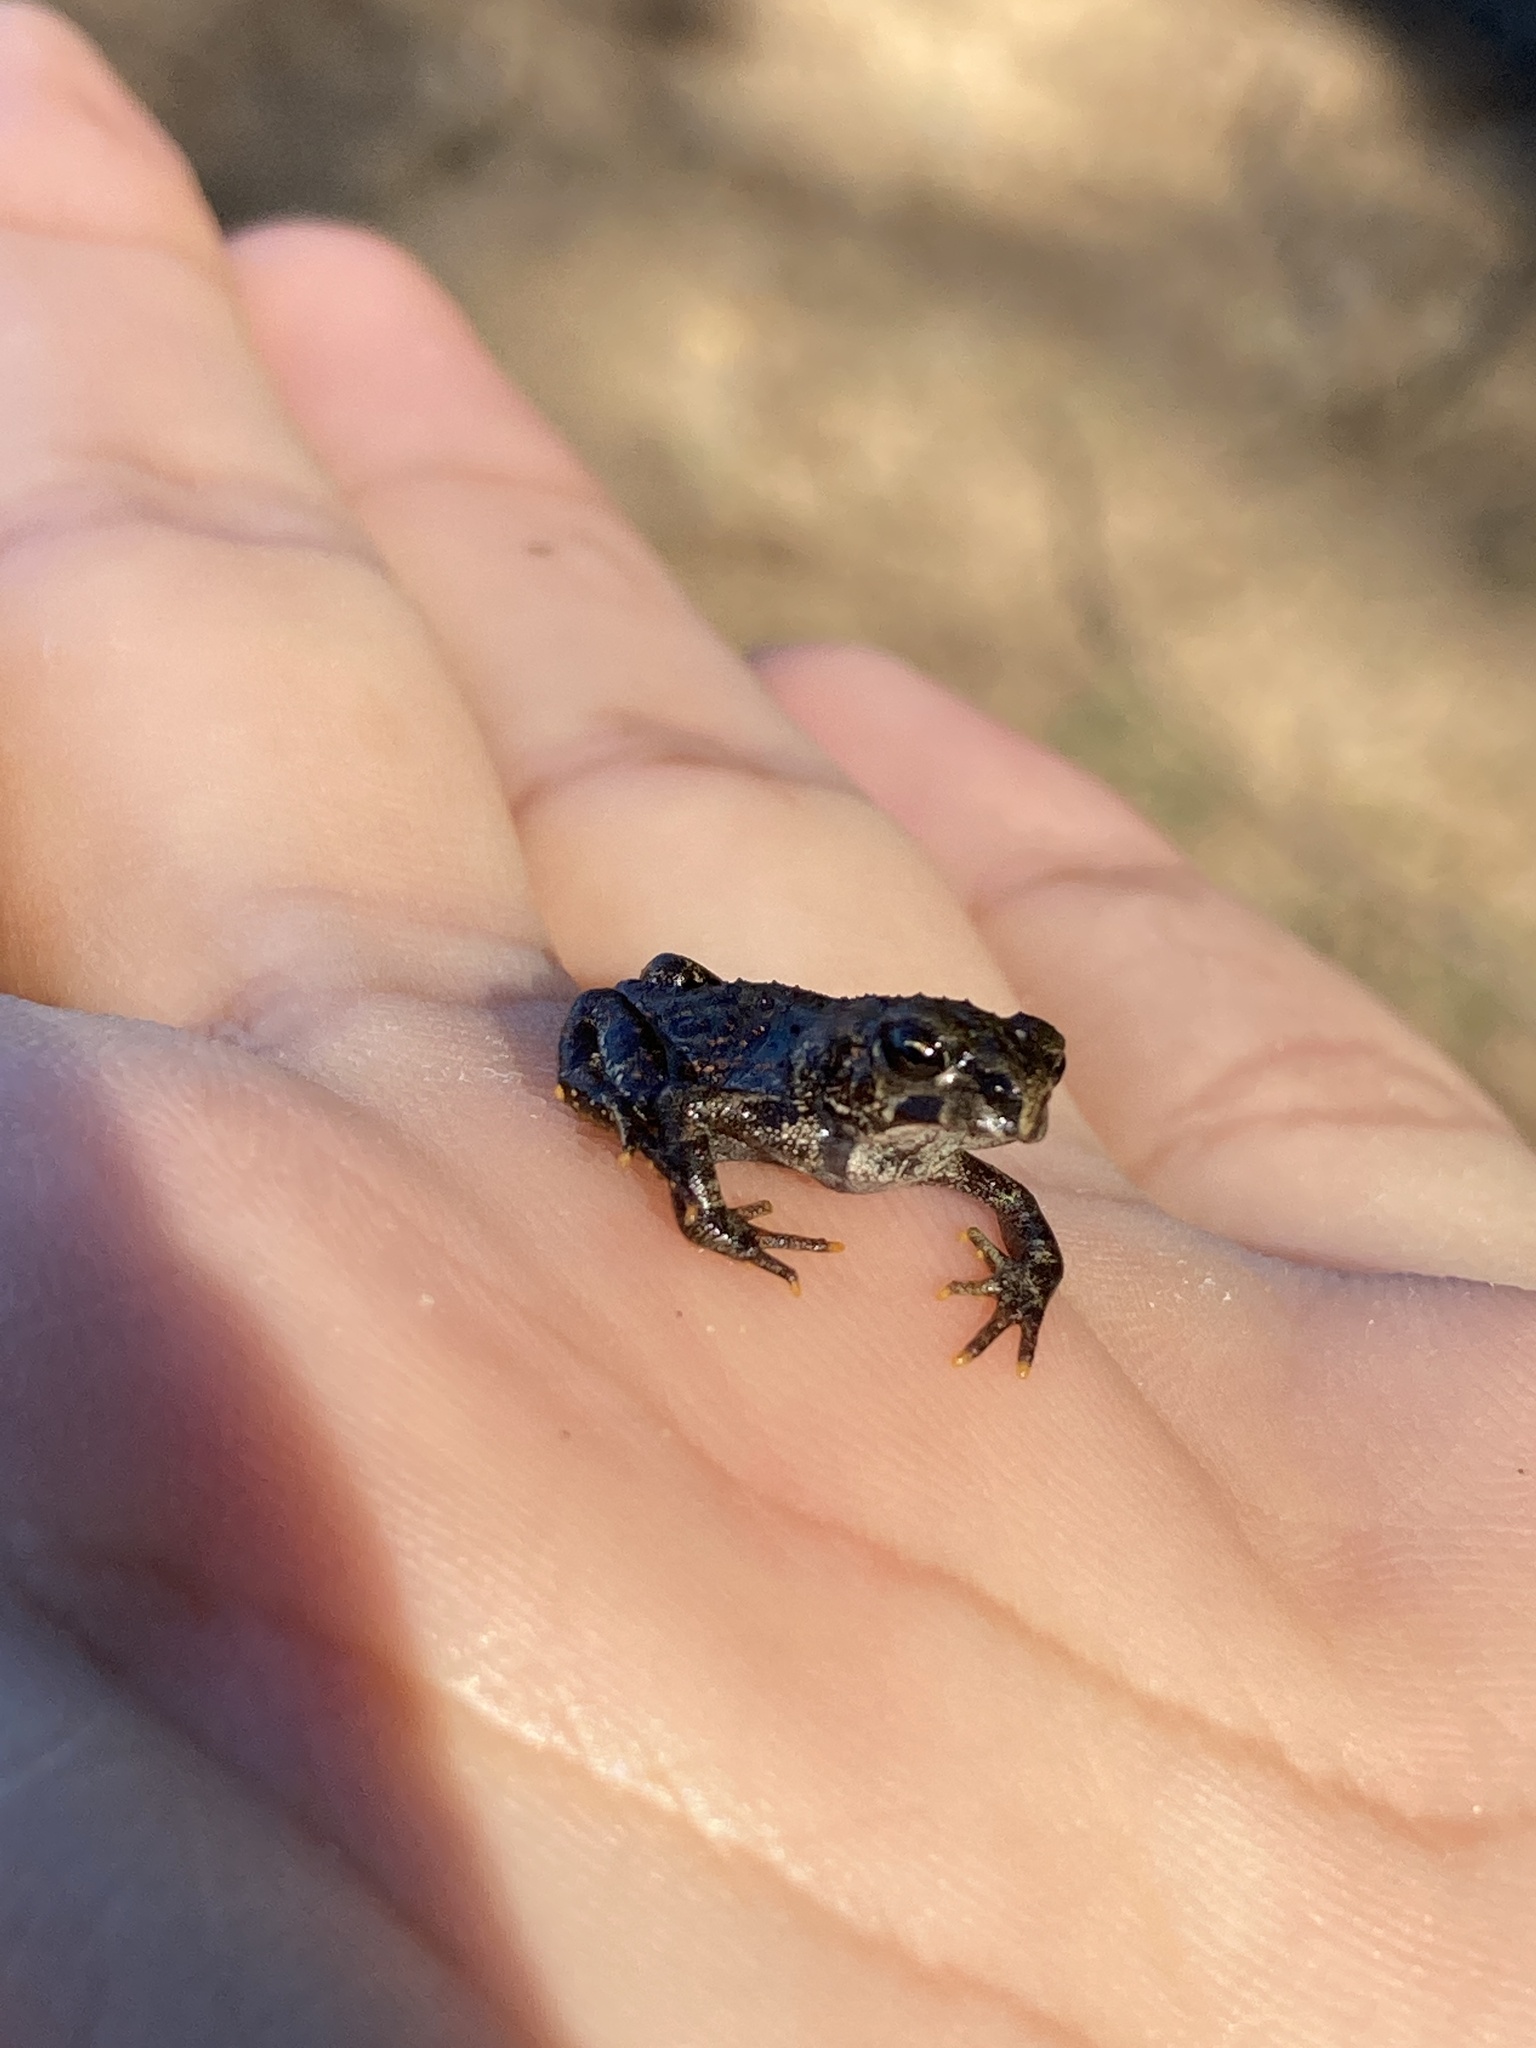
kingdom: Animalia
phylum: Chordata
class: Amphibia
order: Anura
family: Bufonidae
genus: Anaxyrus
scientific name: Anaxyrus boreas
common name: Western toad
